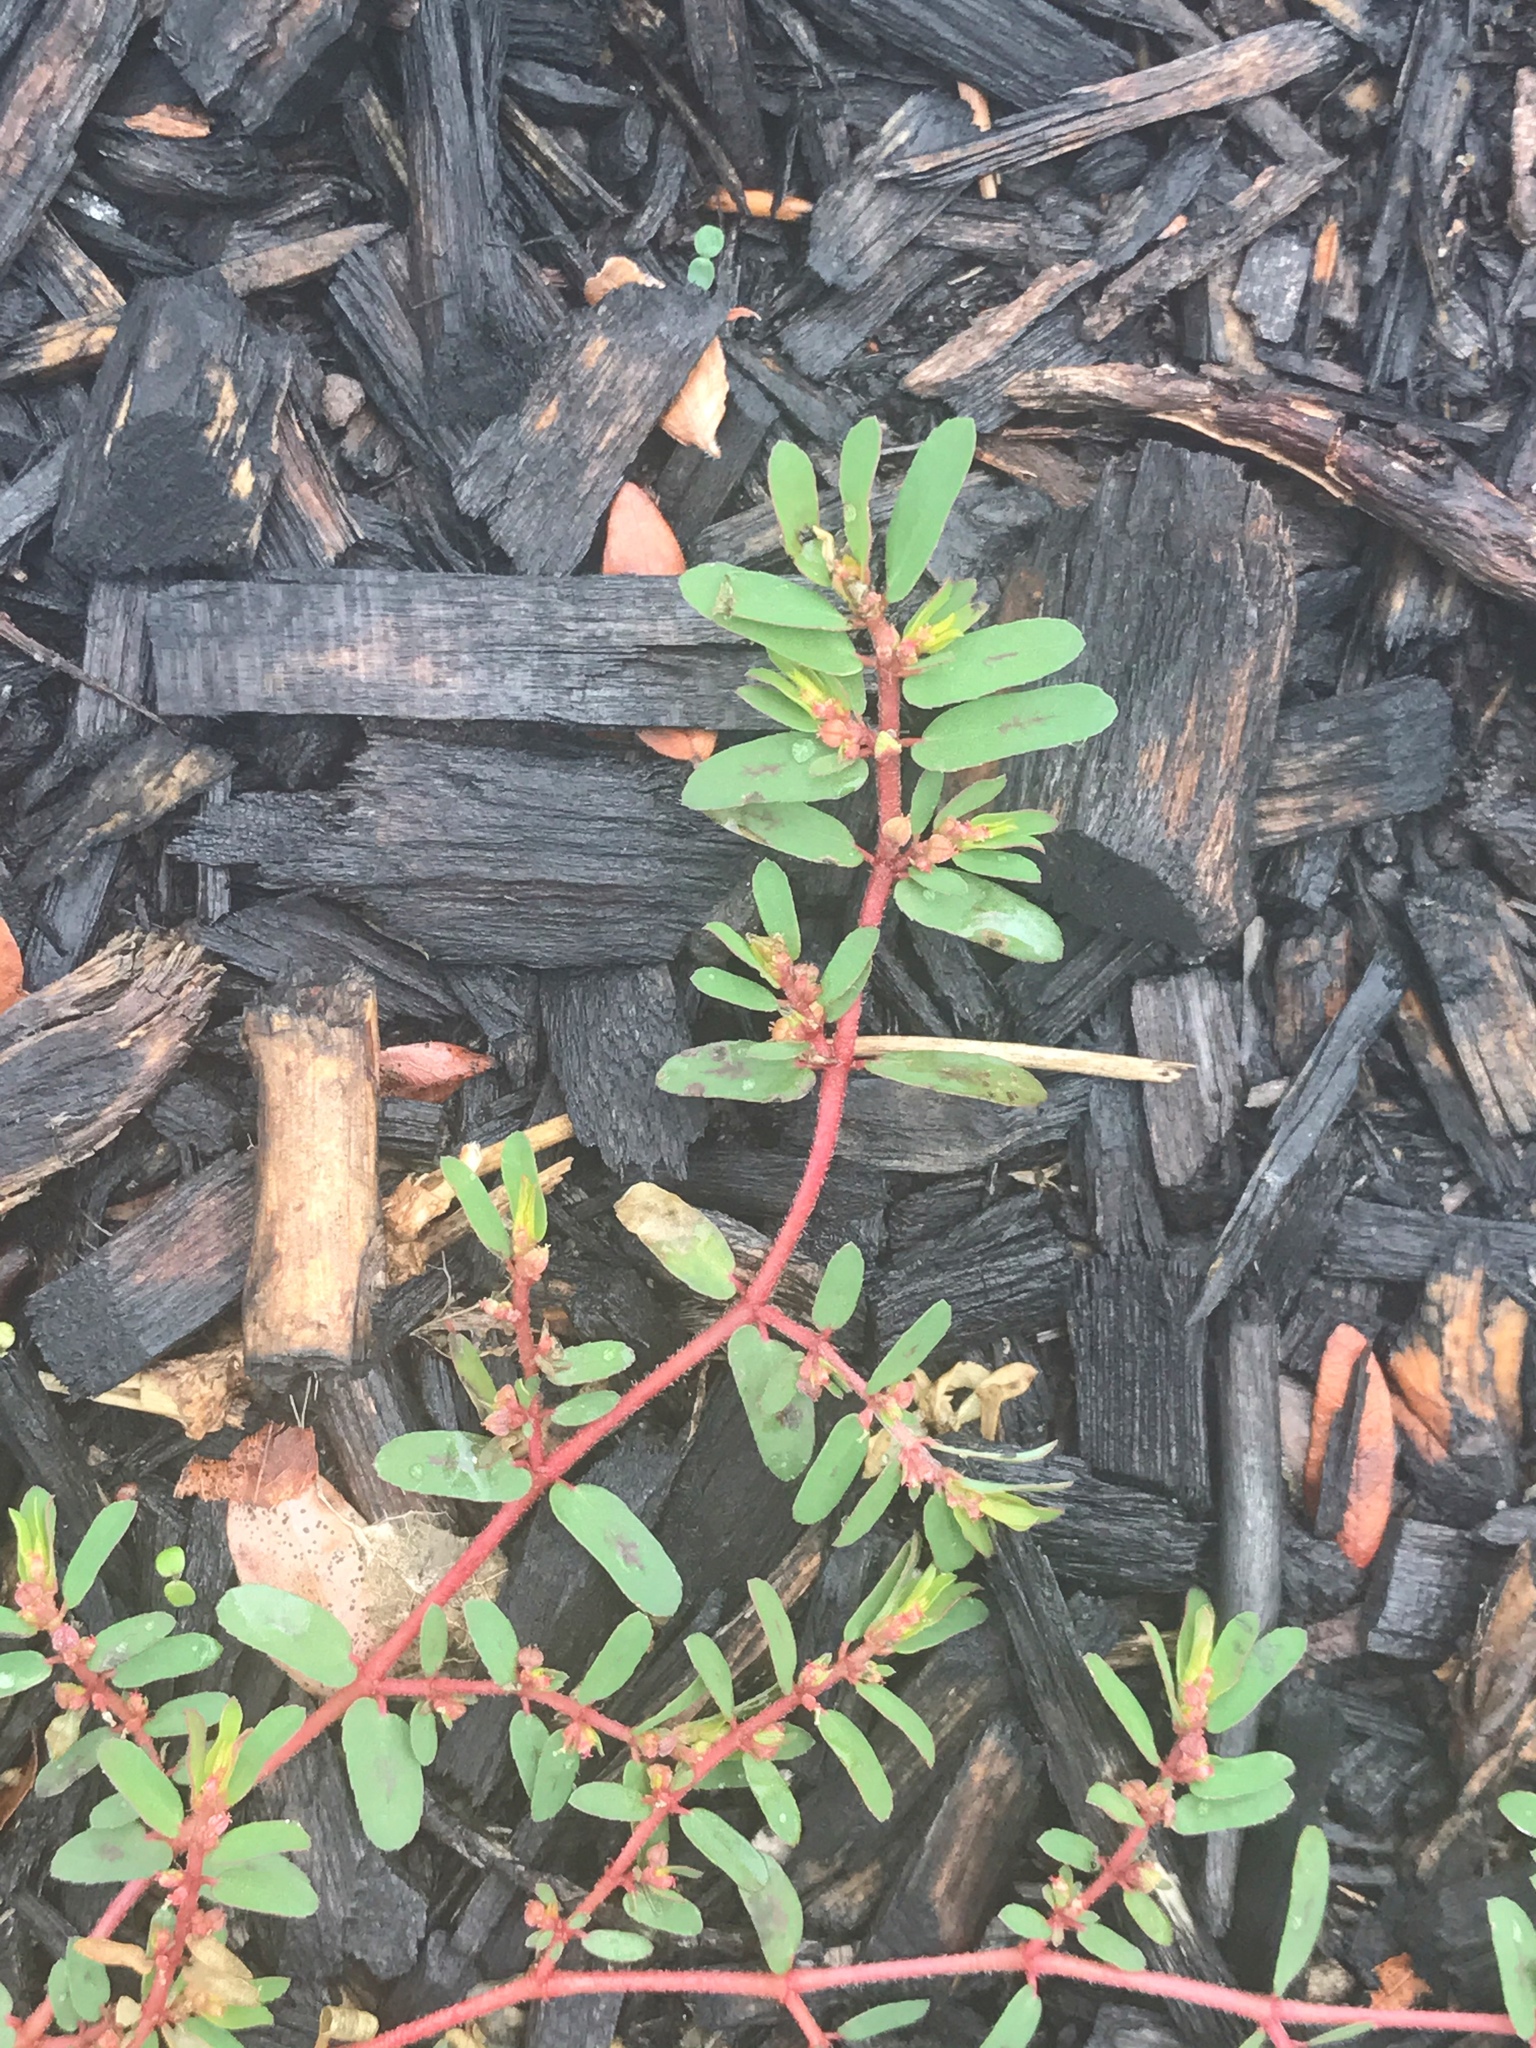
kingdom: Plantae
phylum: Tracheophyta
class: Magnoliopsida
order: Malpighiales
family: Euphorbiaceae
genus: Euphorbia
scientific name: Euphorbia maculata
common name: Spotted spurge
